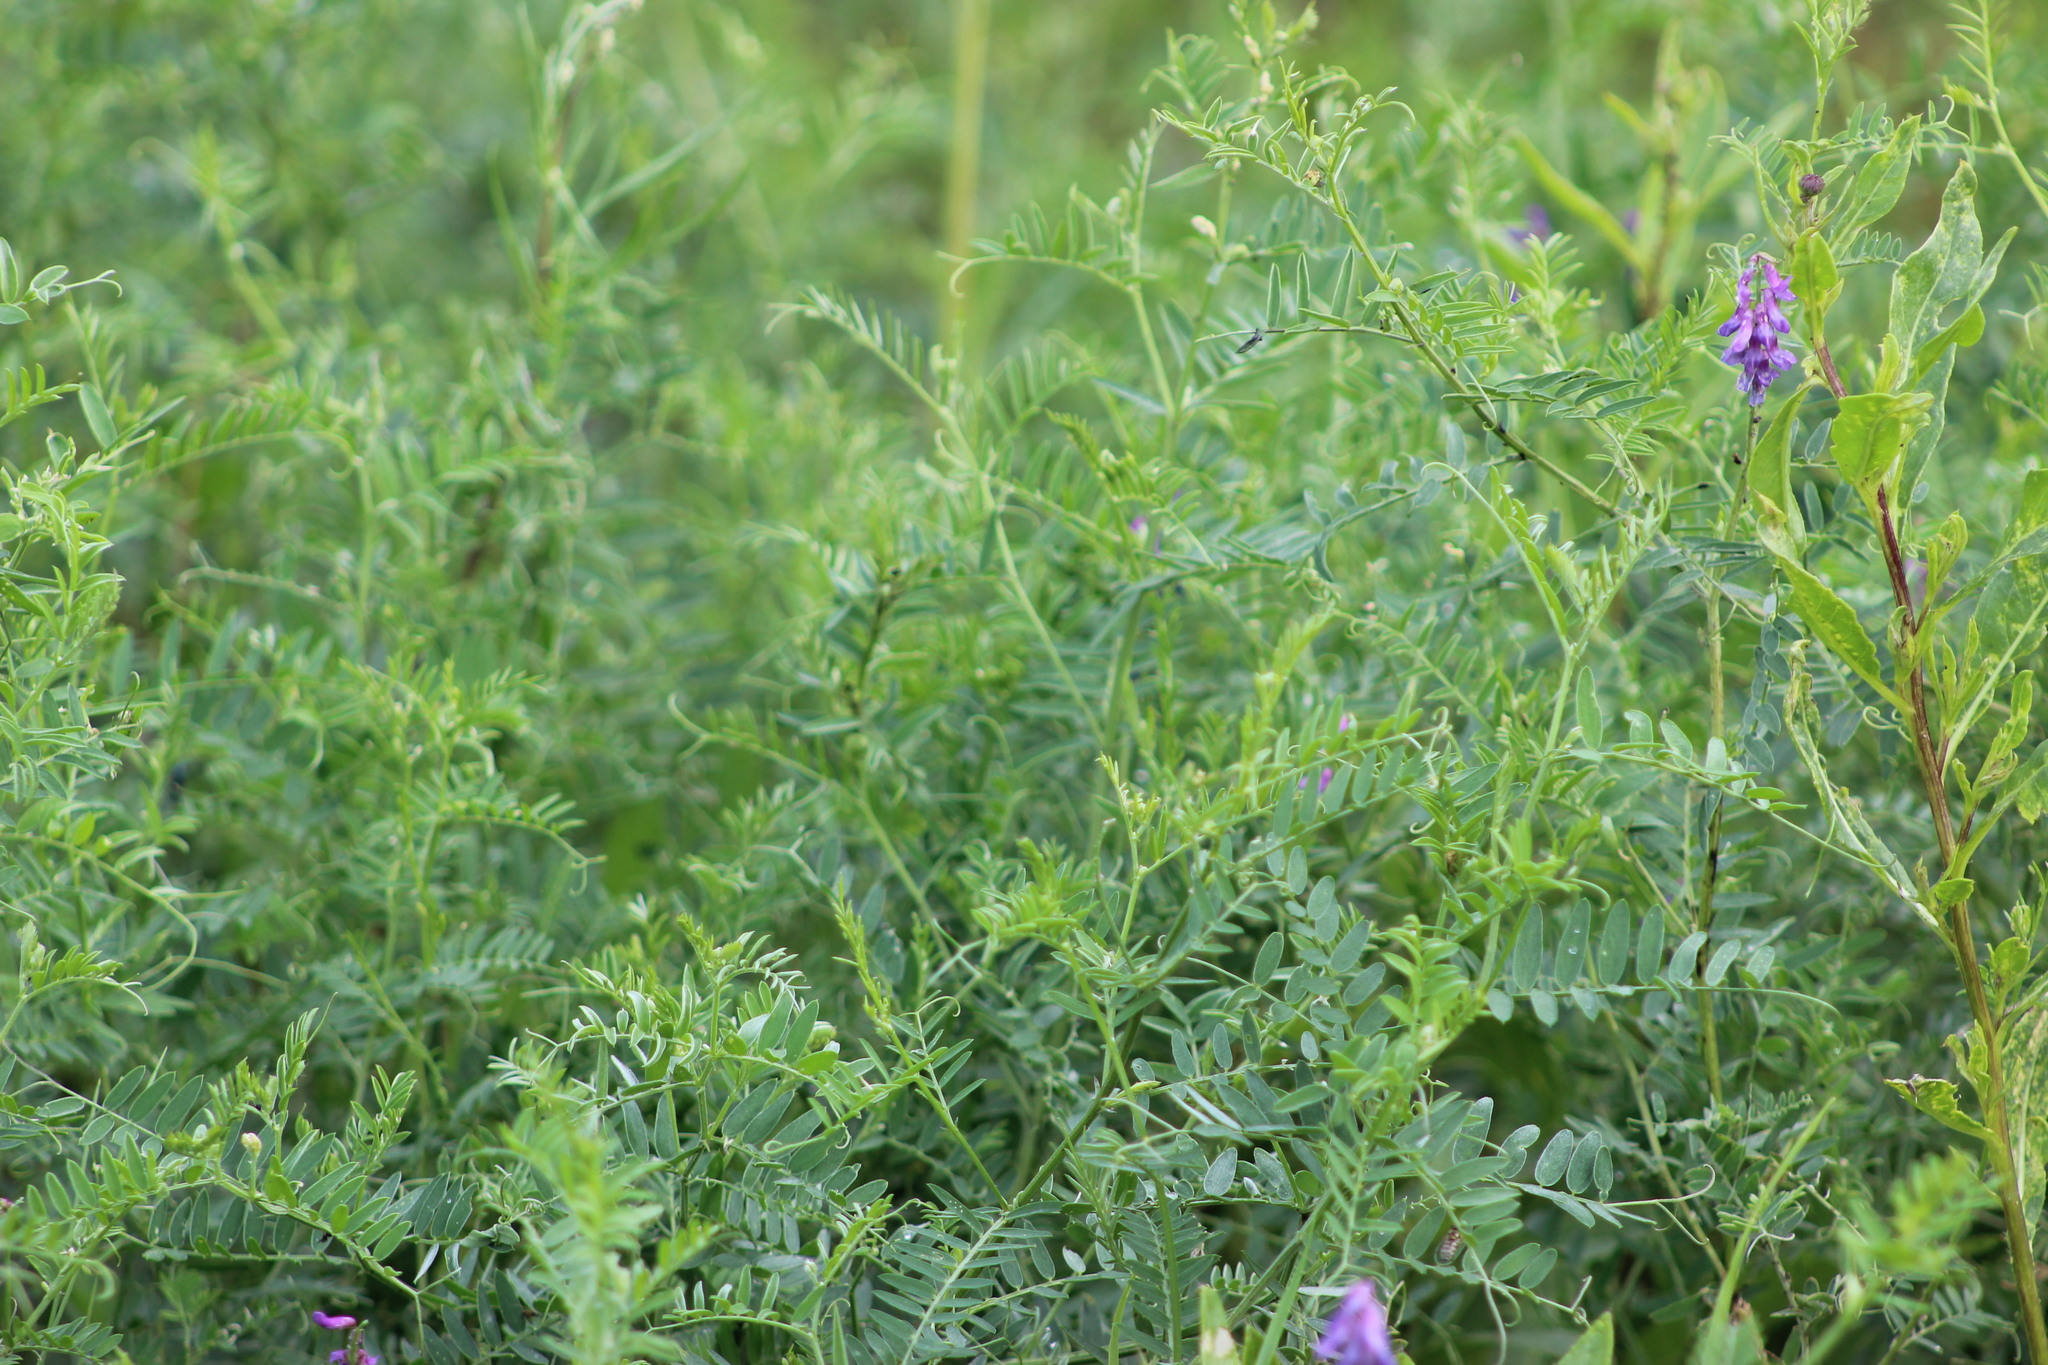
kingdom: Plantae
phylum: Tracheophyta
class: Magnoliopsida
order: Fabales
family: Fabaceae
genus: Vicia
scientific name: Vicia cracca
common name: Bird vetch
